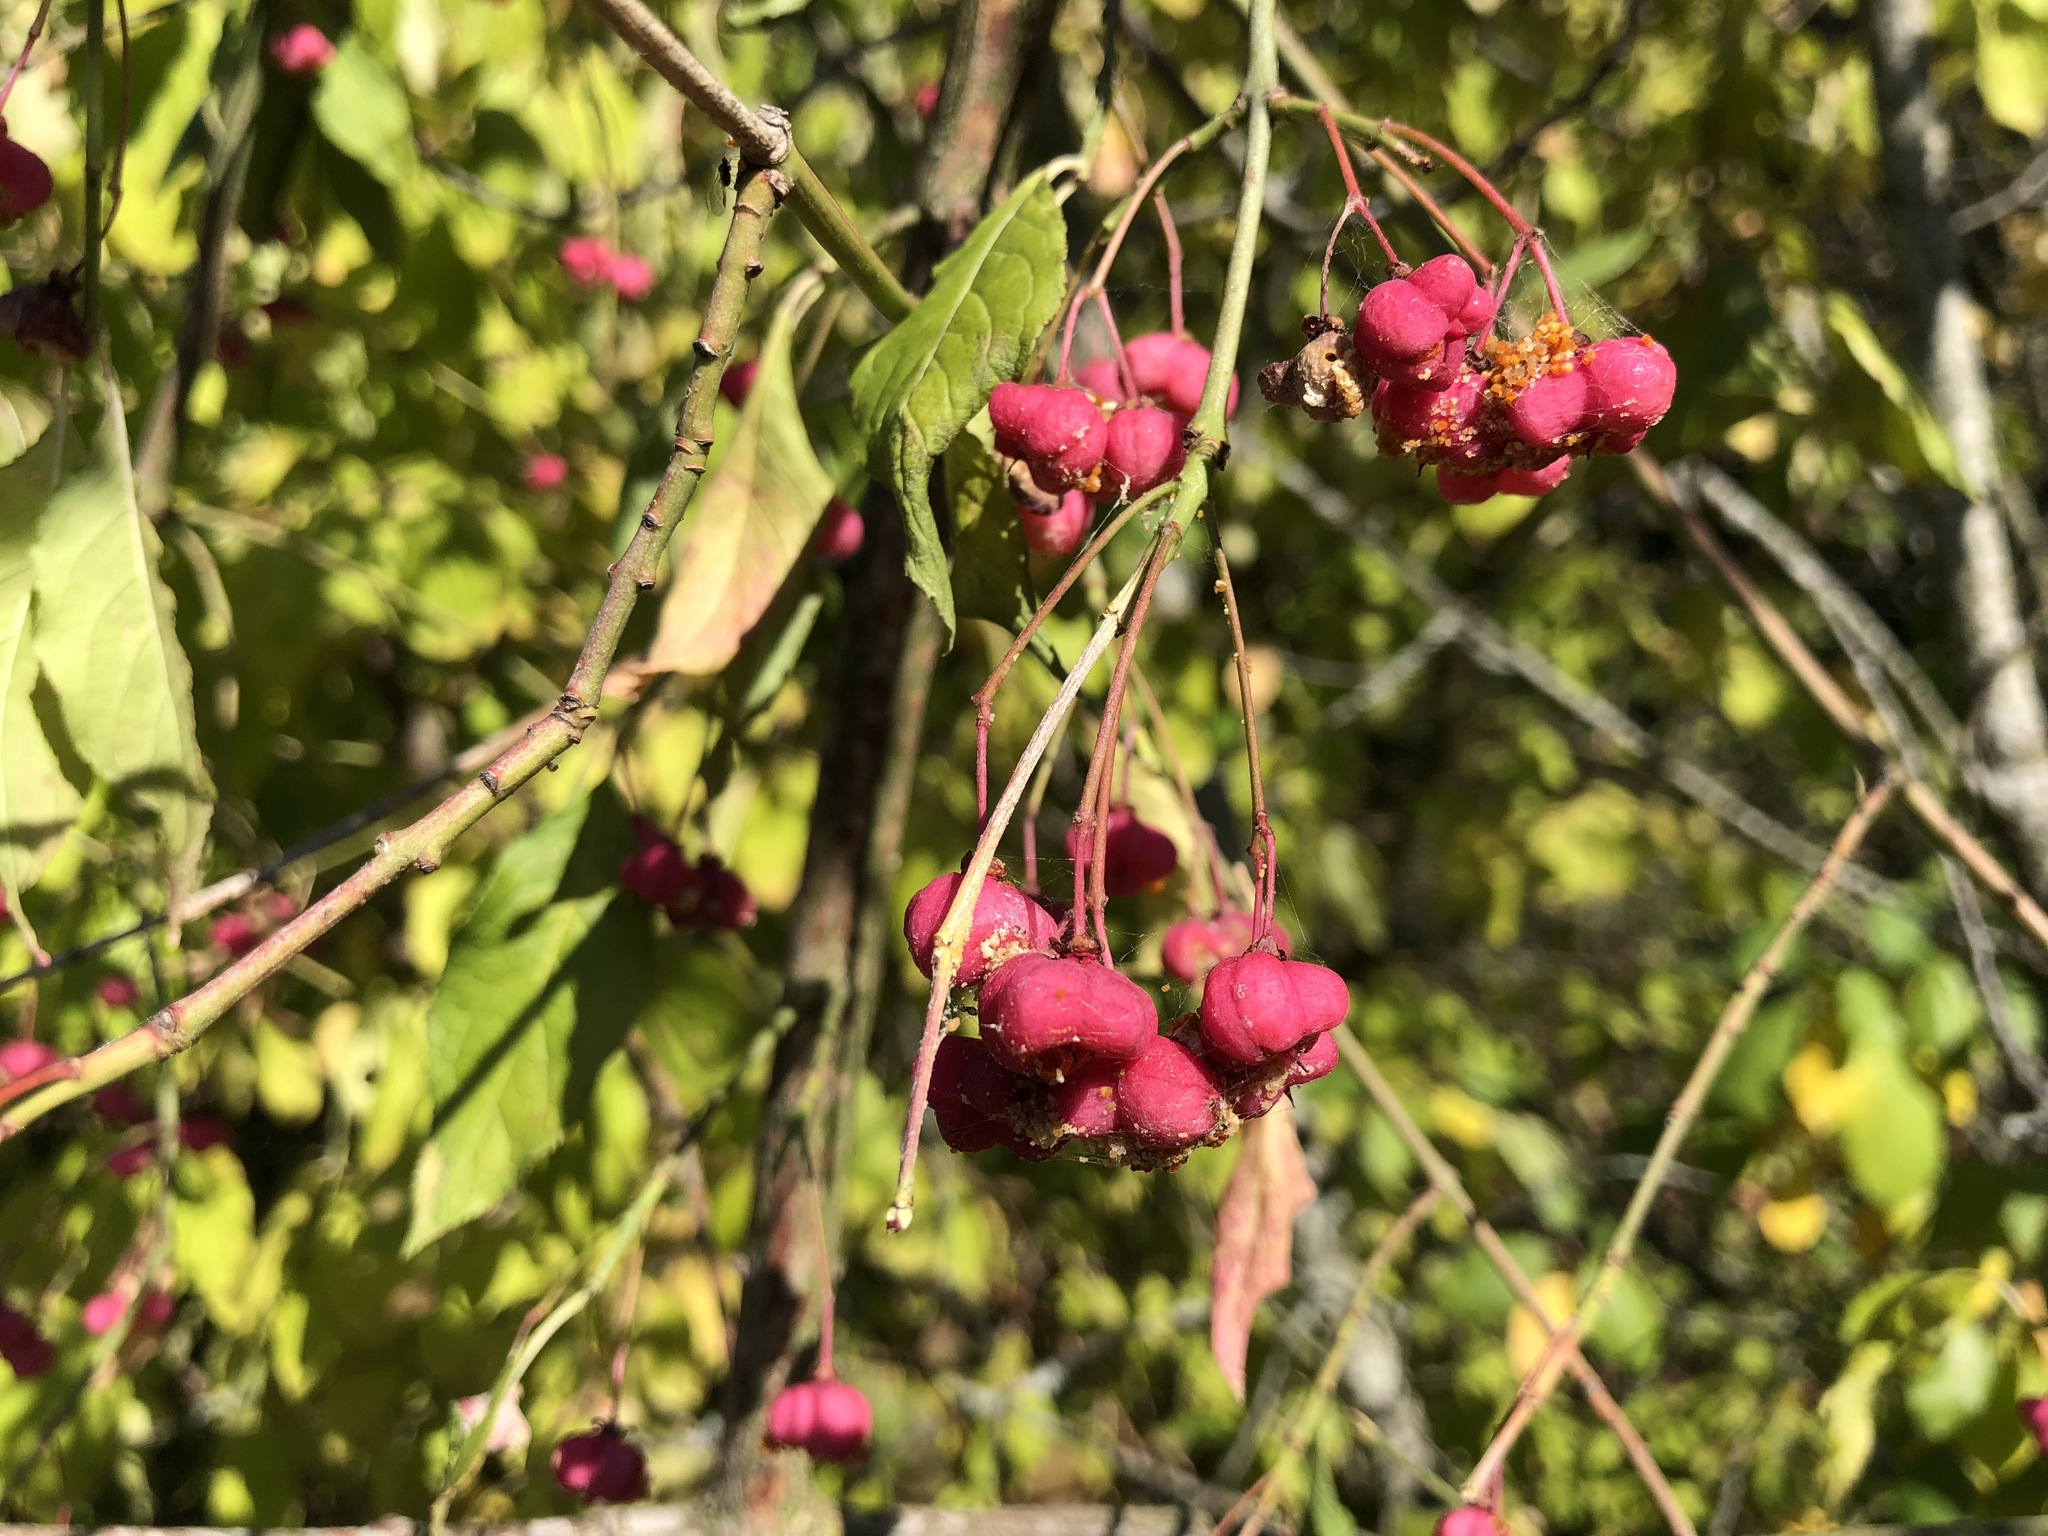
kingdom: Plantae
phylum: Tracheophyta
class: Magnoliopsida
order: Celastrales
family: Celastraceae
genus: Euonymus
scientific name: Euonymus europaeus
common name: Spindle
